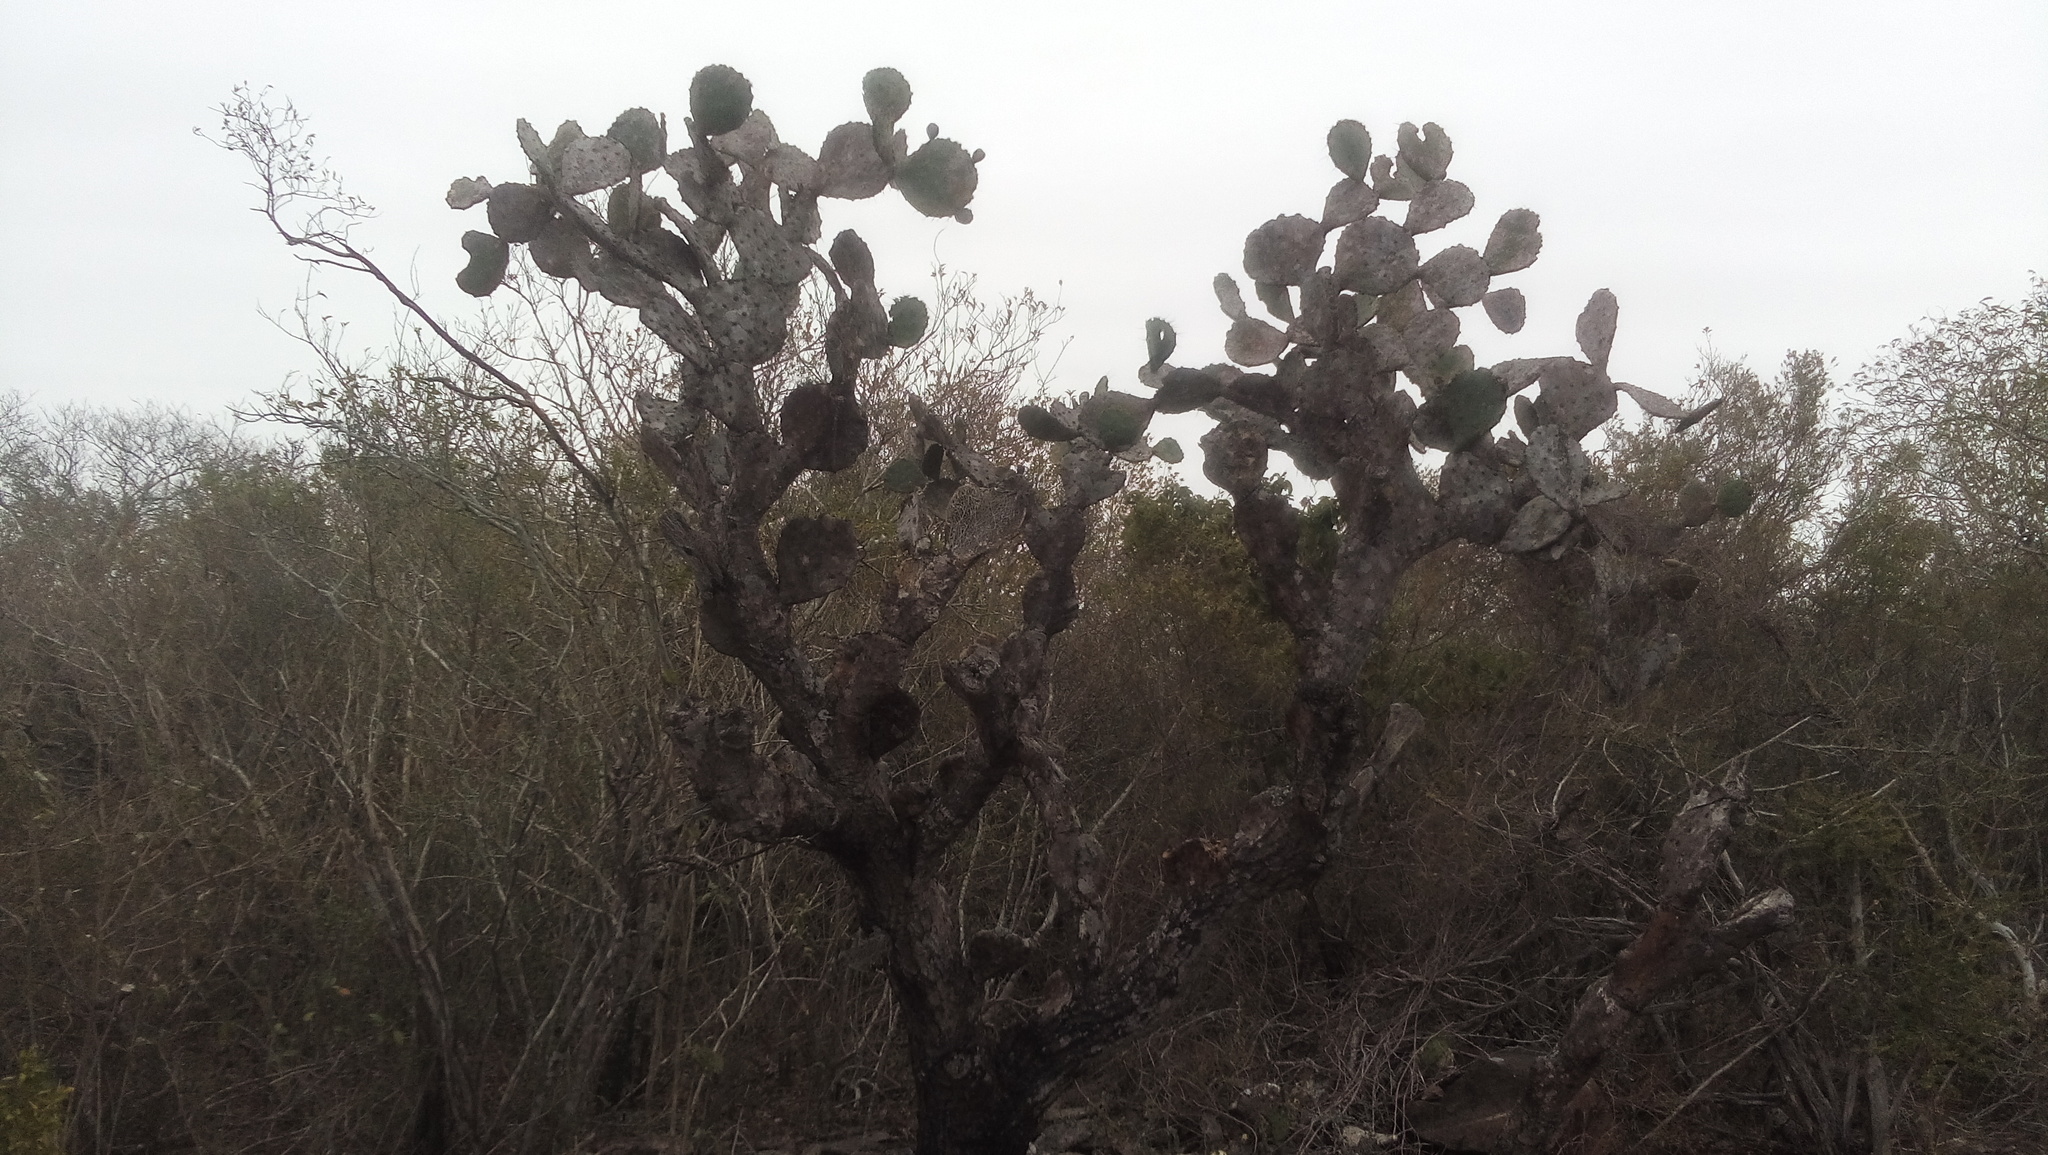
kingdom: Plantae
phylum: Tracheophyta
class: Magnoliopsida
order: Caryophyllales
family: Cactaceae
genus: Opuntia
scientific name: Opuntia engelmannii
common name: Cactus-apple
